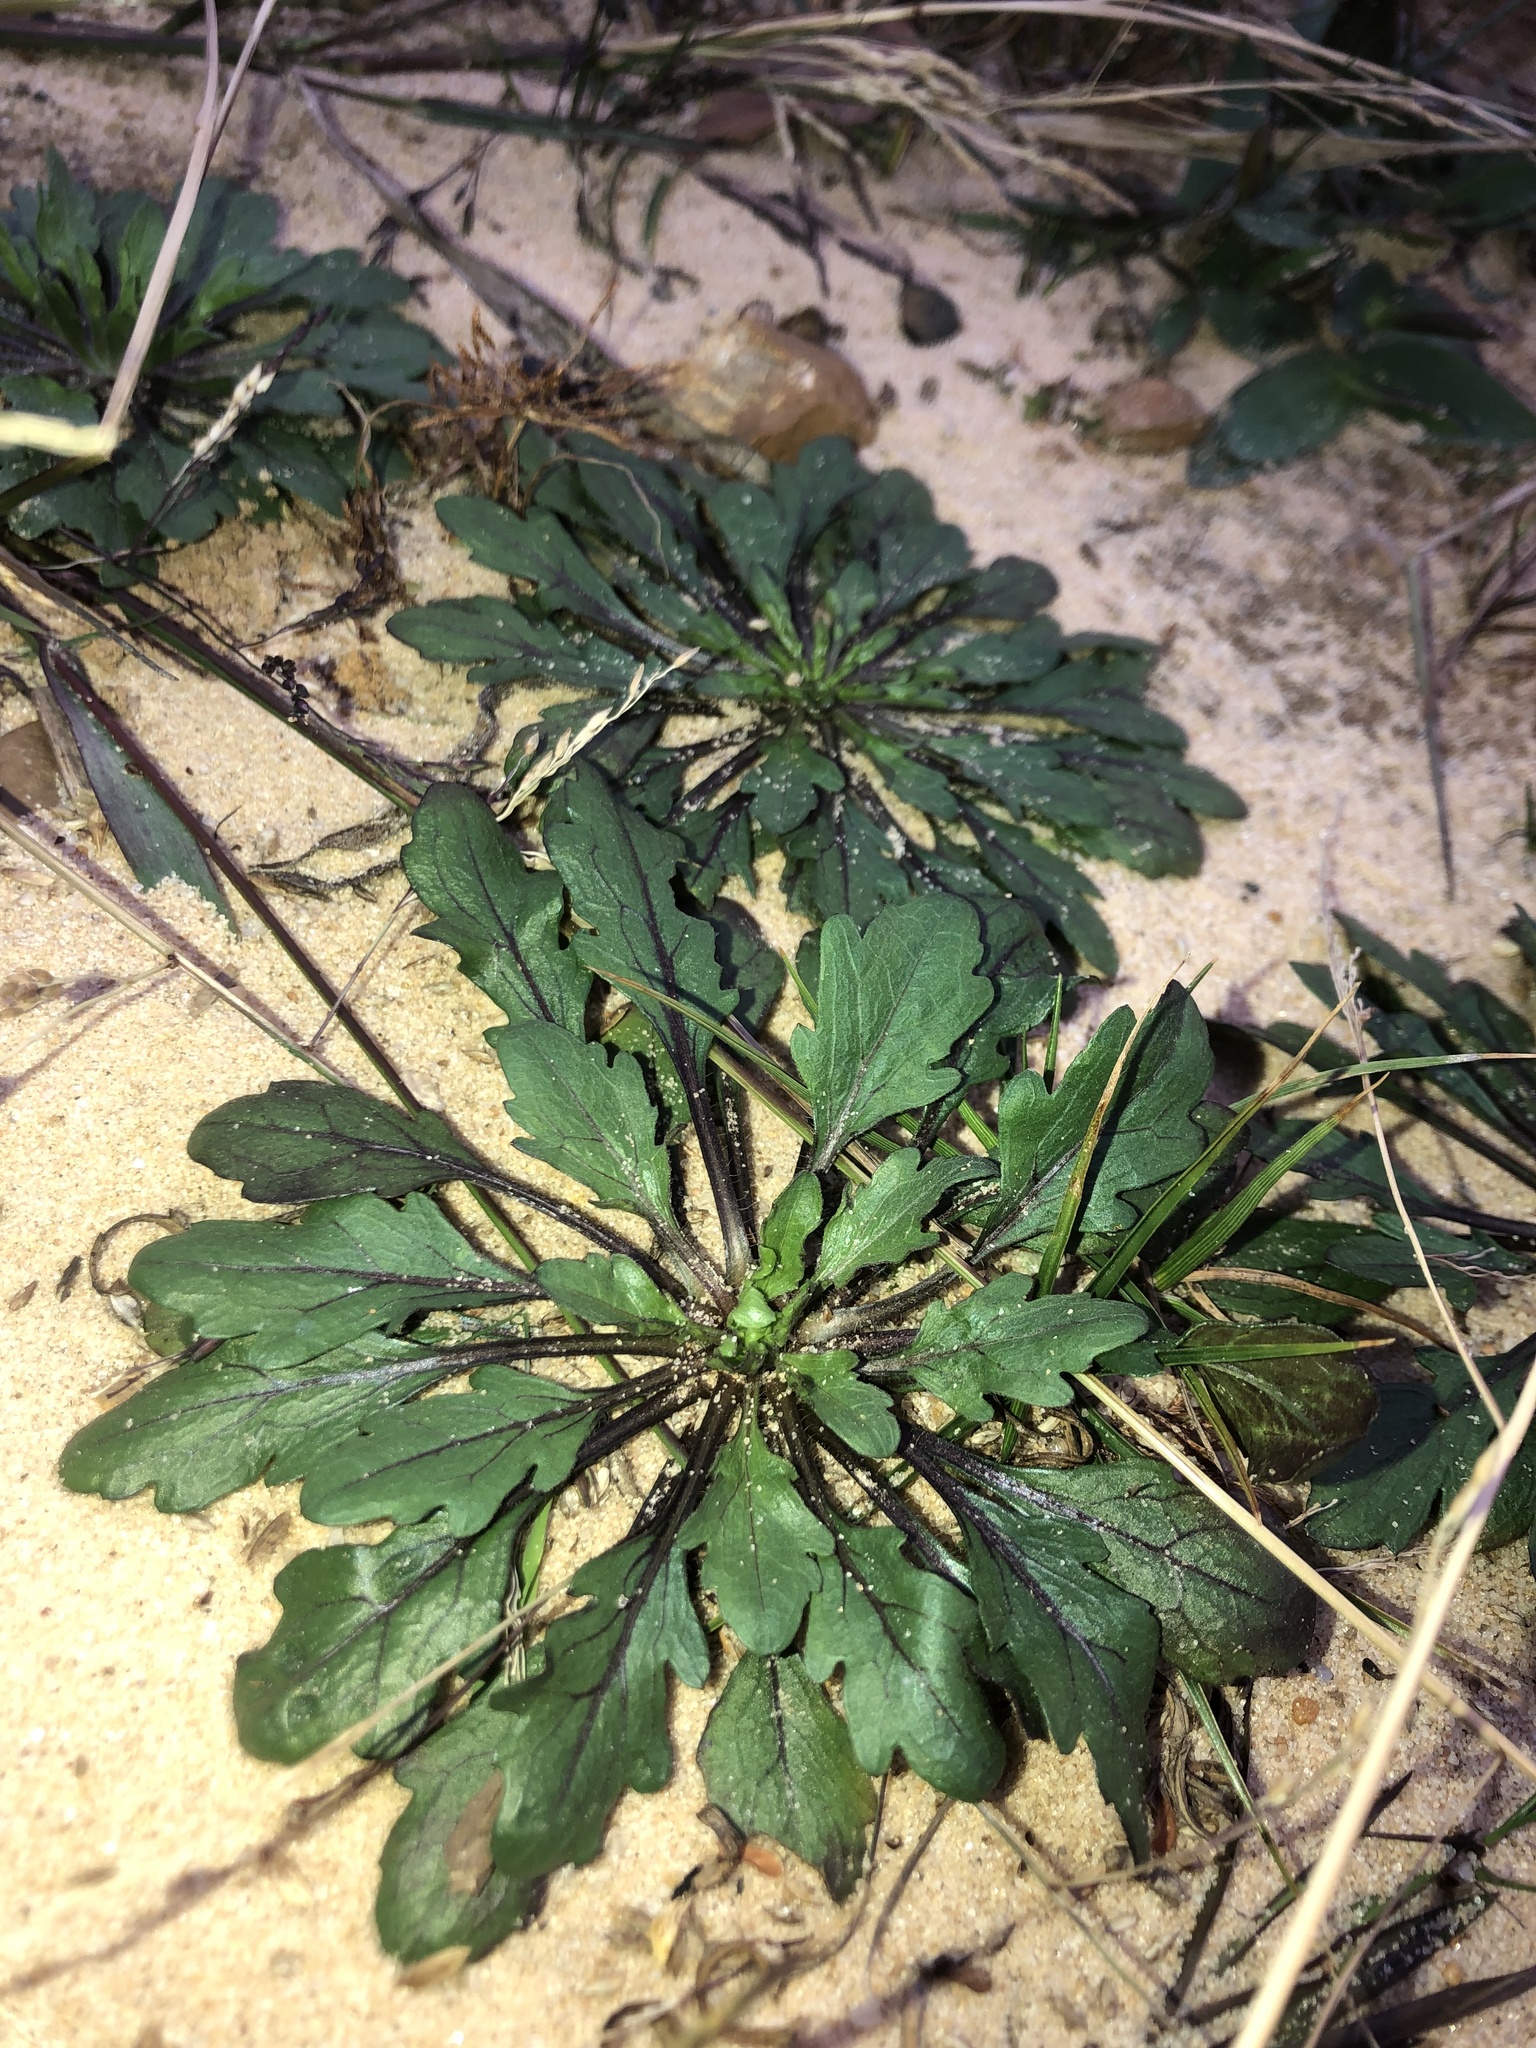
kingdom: Plantae
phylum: Tracheophyta
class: Magnoliopsida
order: Asterales
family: Asteraceae
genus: Erigeron
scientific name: Erigeron canadensis
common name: Canadian fleabane
